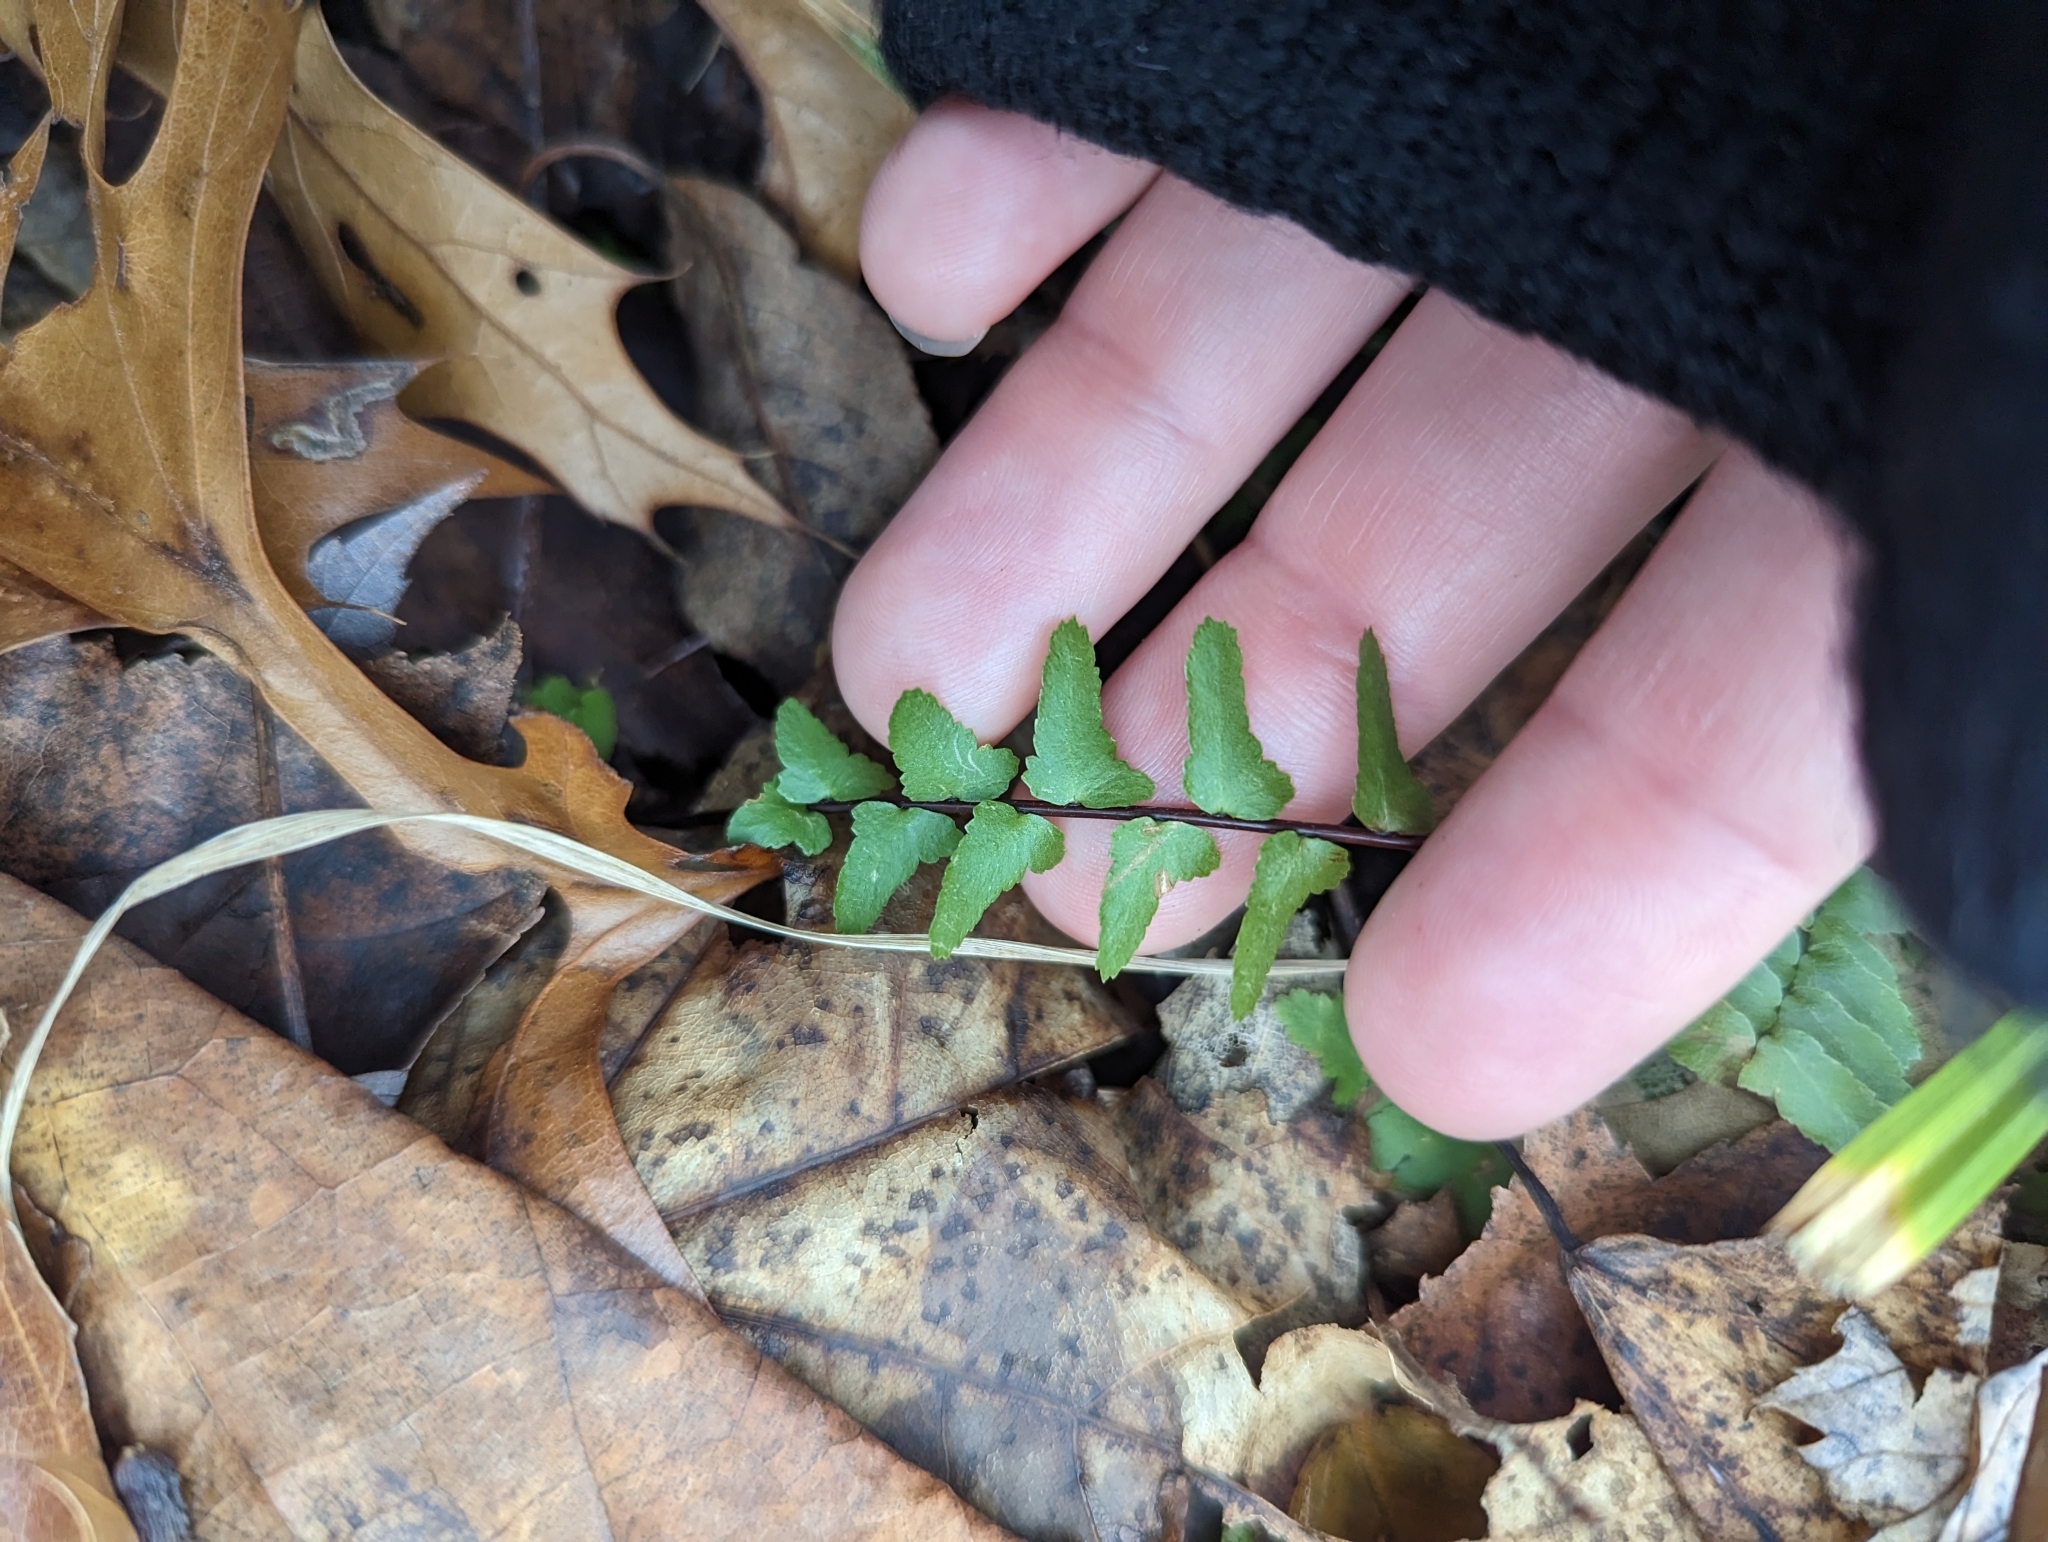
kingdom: Plantae
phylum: Tracheophyta
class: Polypodiopsida
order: Polypodiales
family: Aspleniaceae
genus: Asplenium
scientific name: Asplenium platyneuron
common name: Ebony spleenwort
